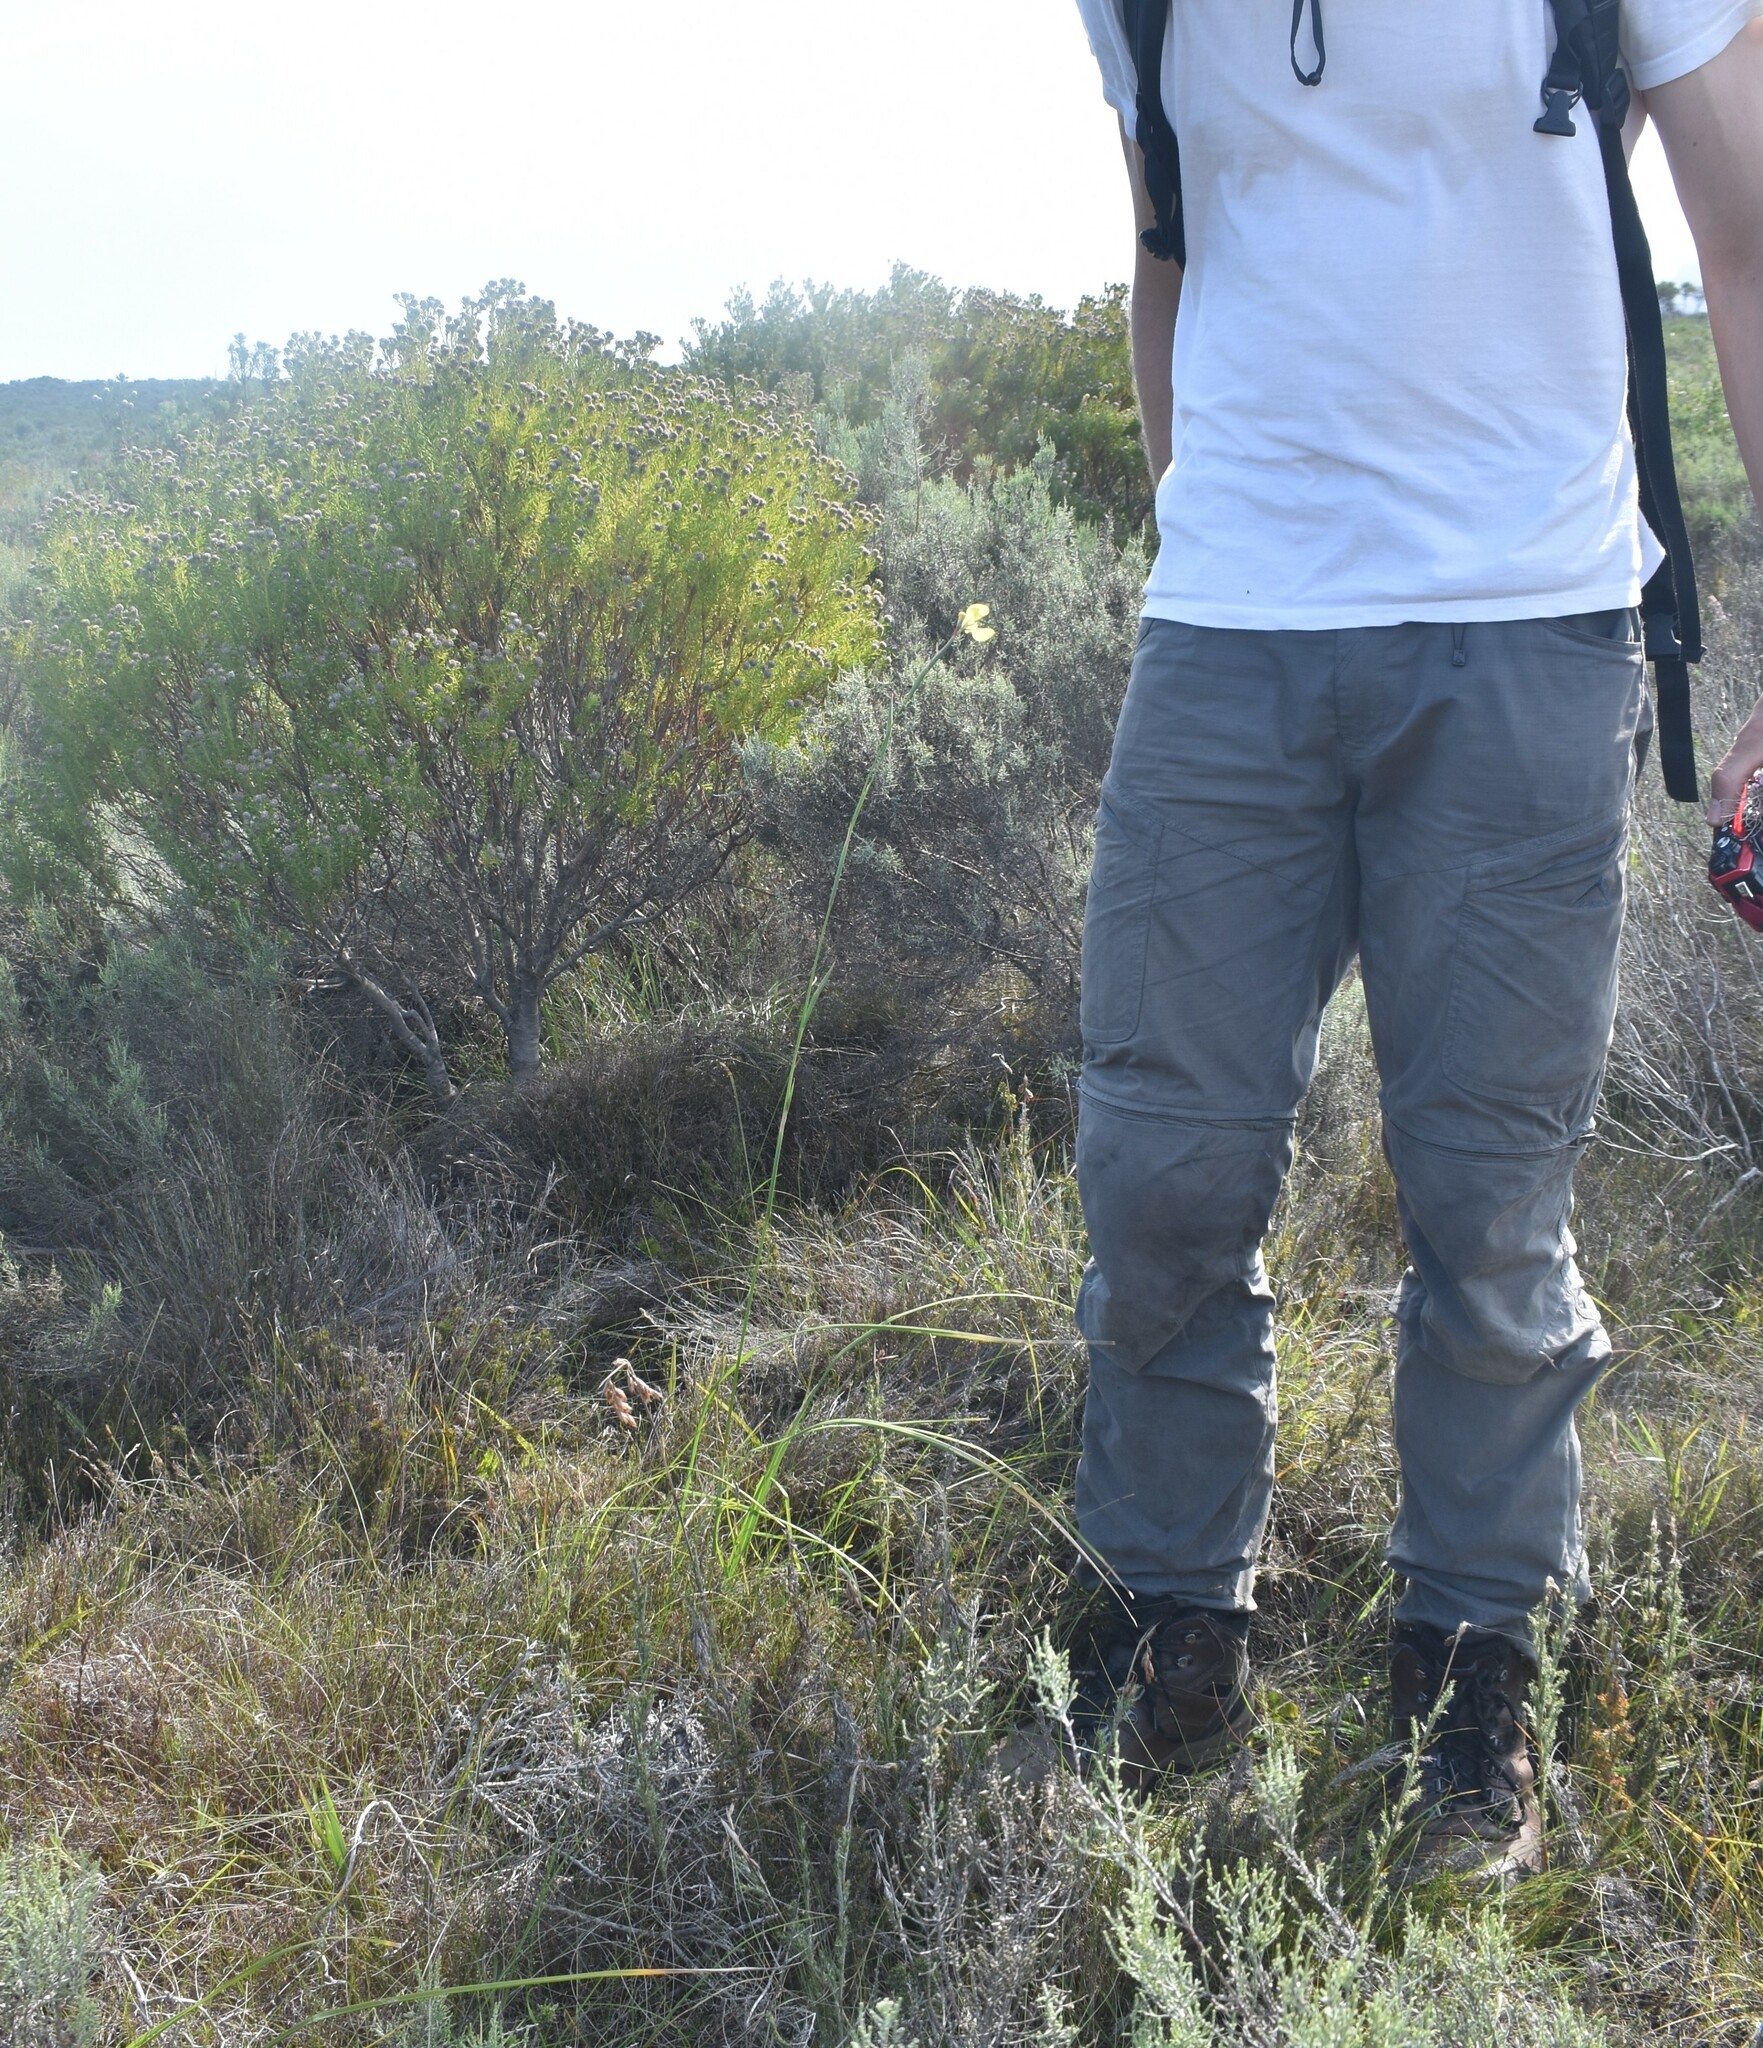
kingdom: Plantae
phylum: Tracheophyta
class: Liliopsida
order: Asparagales
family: Iridaceae
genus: Moraea
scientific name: Moraea bellendenii
